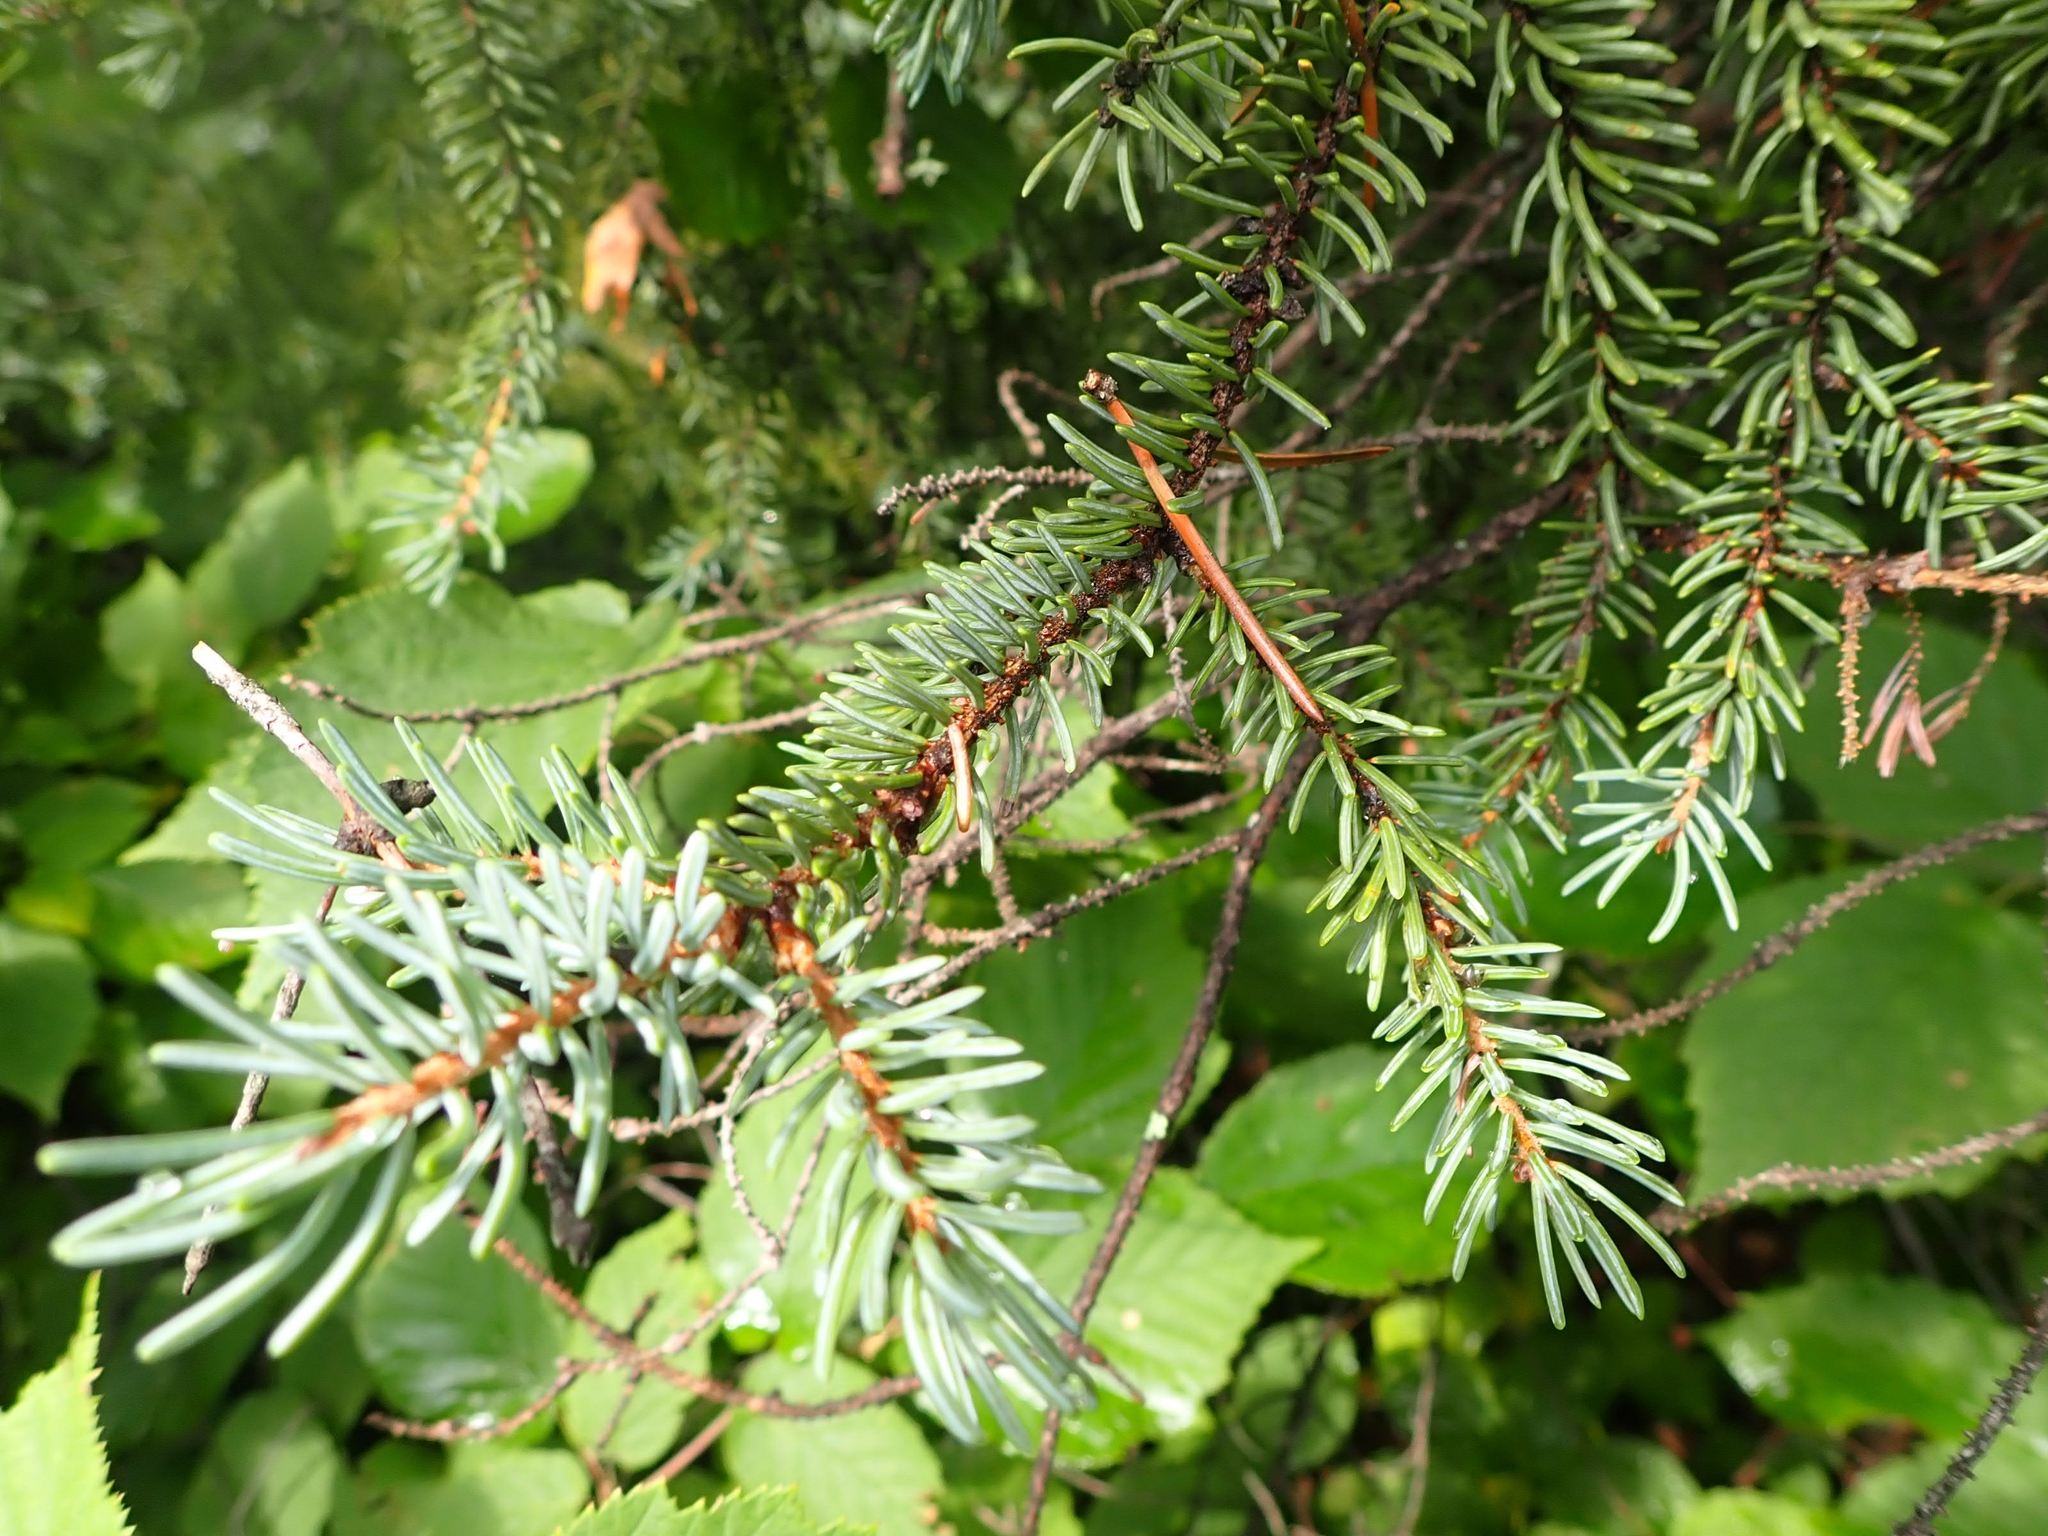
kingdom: Plantae
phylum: Tracheophyta
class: Pinopsida
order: Pinales
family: Pinaceae
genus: Picea
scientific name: Picea mariana
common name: Black spruce
